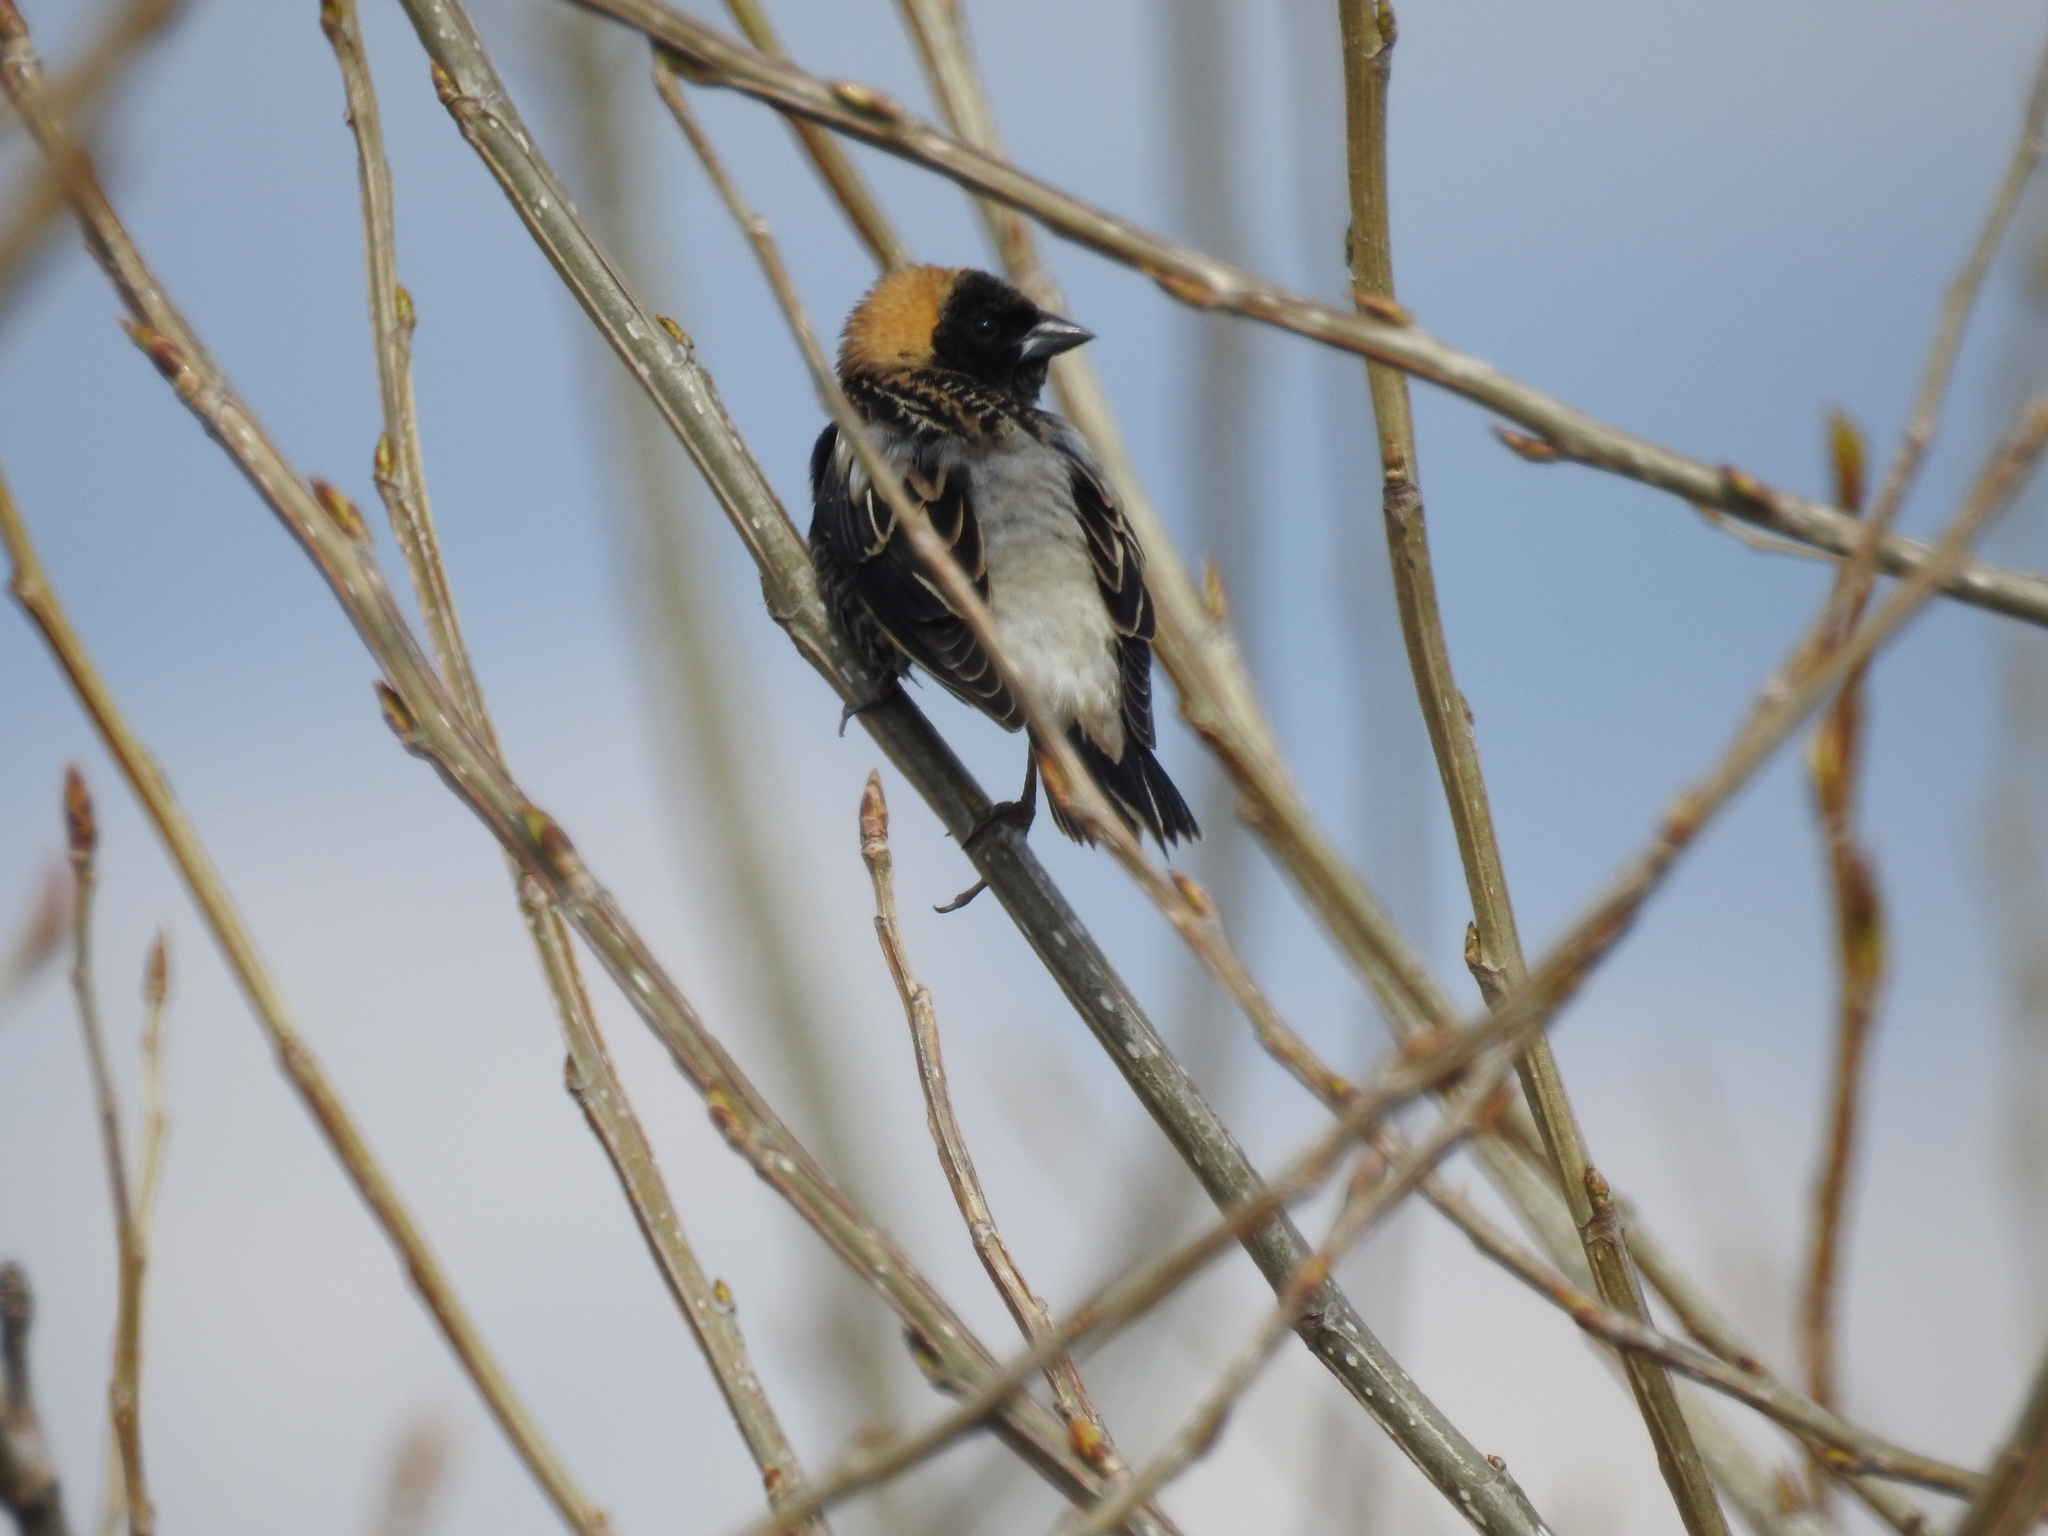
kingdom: Animalia
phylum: Chordata
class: Aves
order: Passeriformes
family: Icteridae
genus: Dolichonyx
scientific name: Dolichonyx oryzivorus
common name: Bobolink
